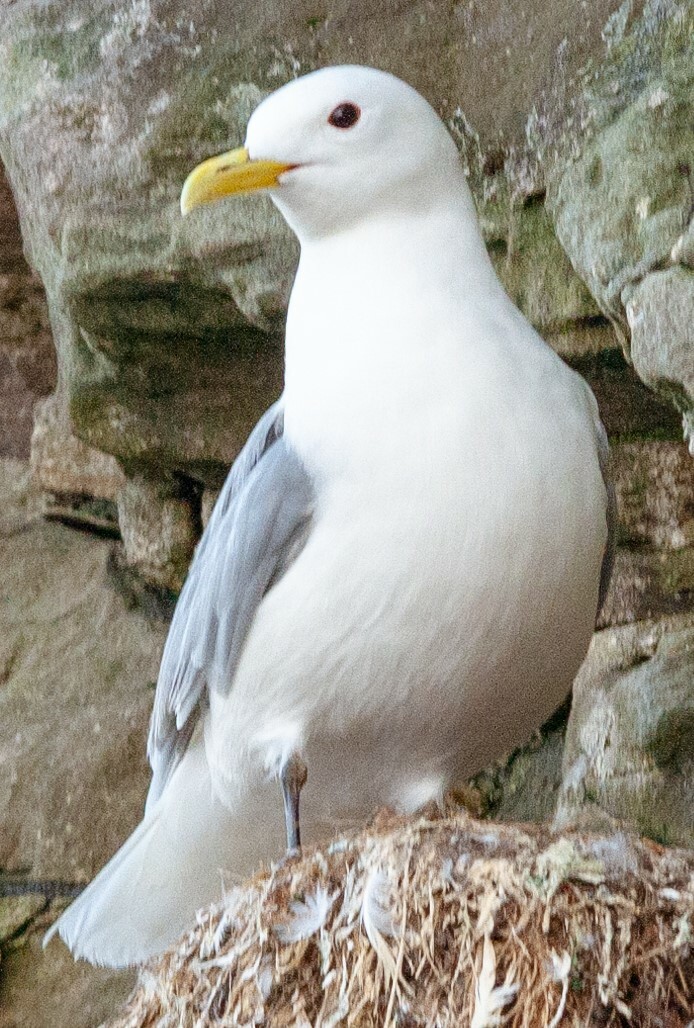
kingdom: Animalia
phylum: Chordata
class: Aves
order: Charadriiformes
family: Laridae
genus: Rissa
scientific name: Rissa tridactyla
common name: Black-legged kittiwake
